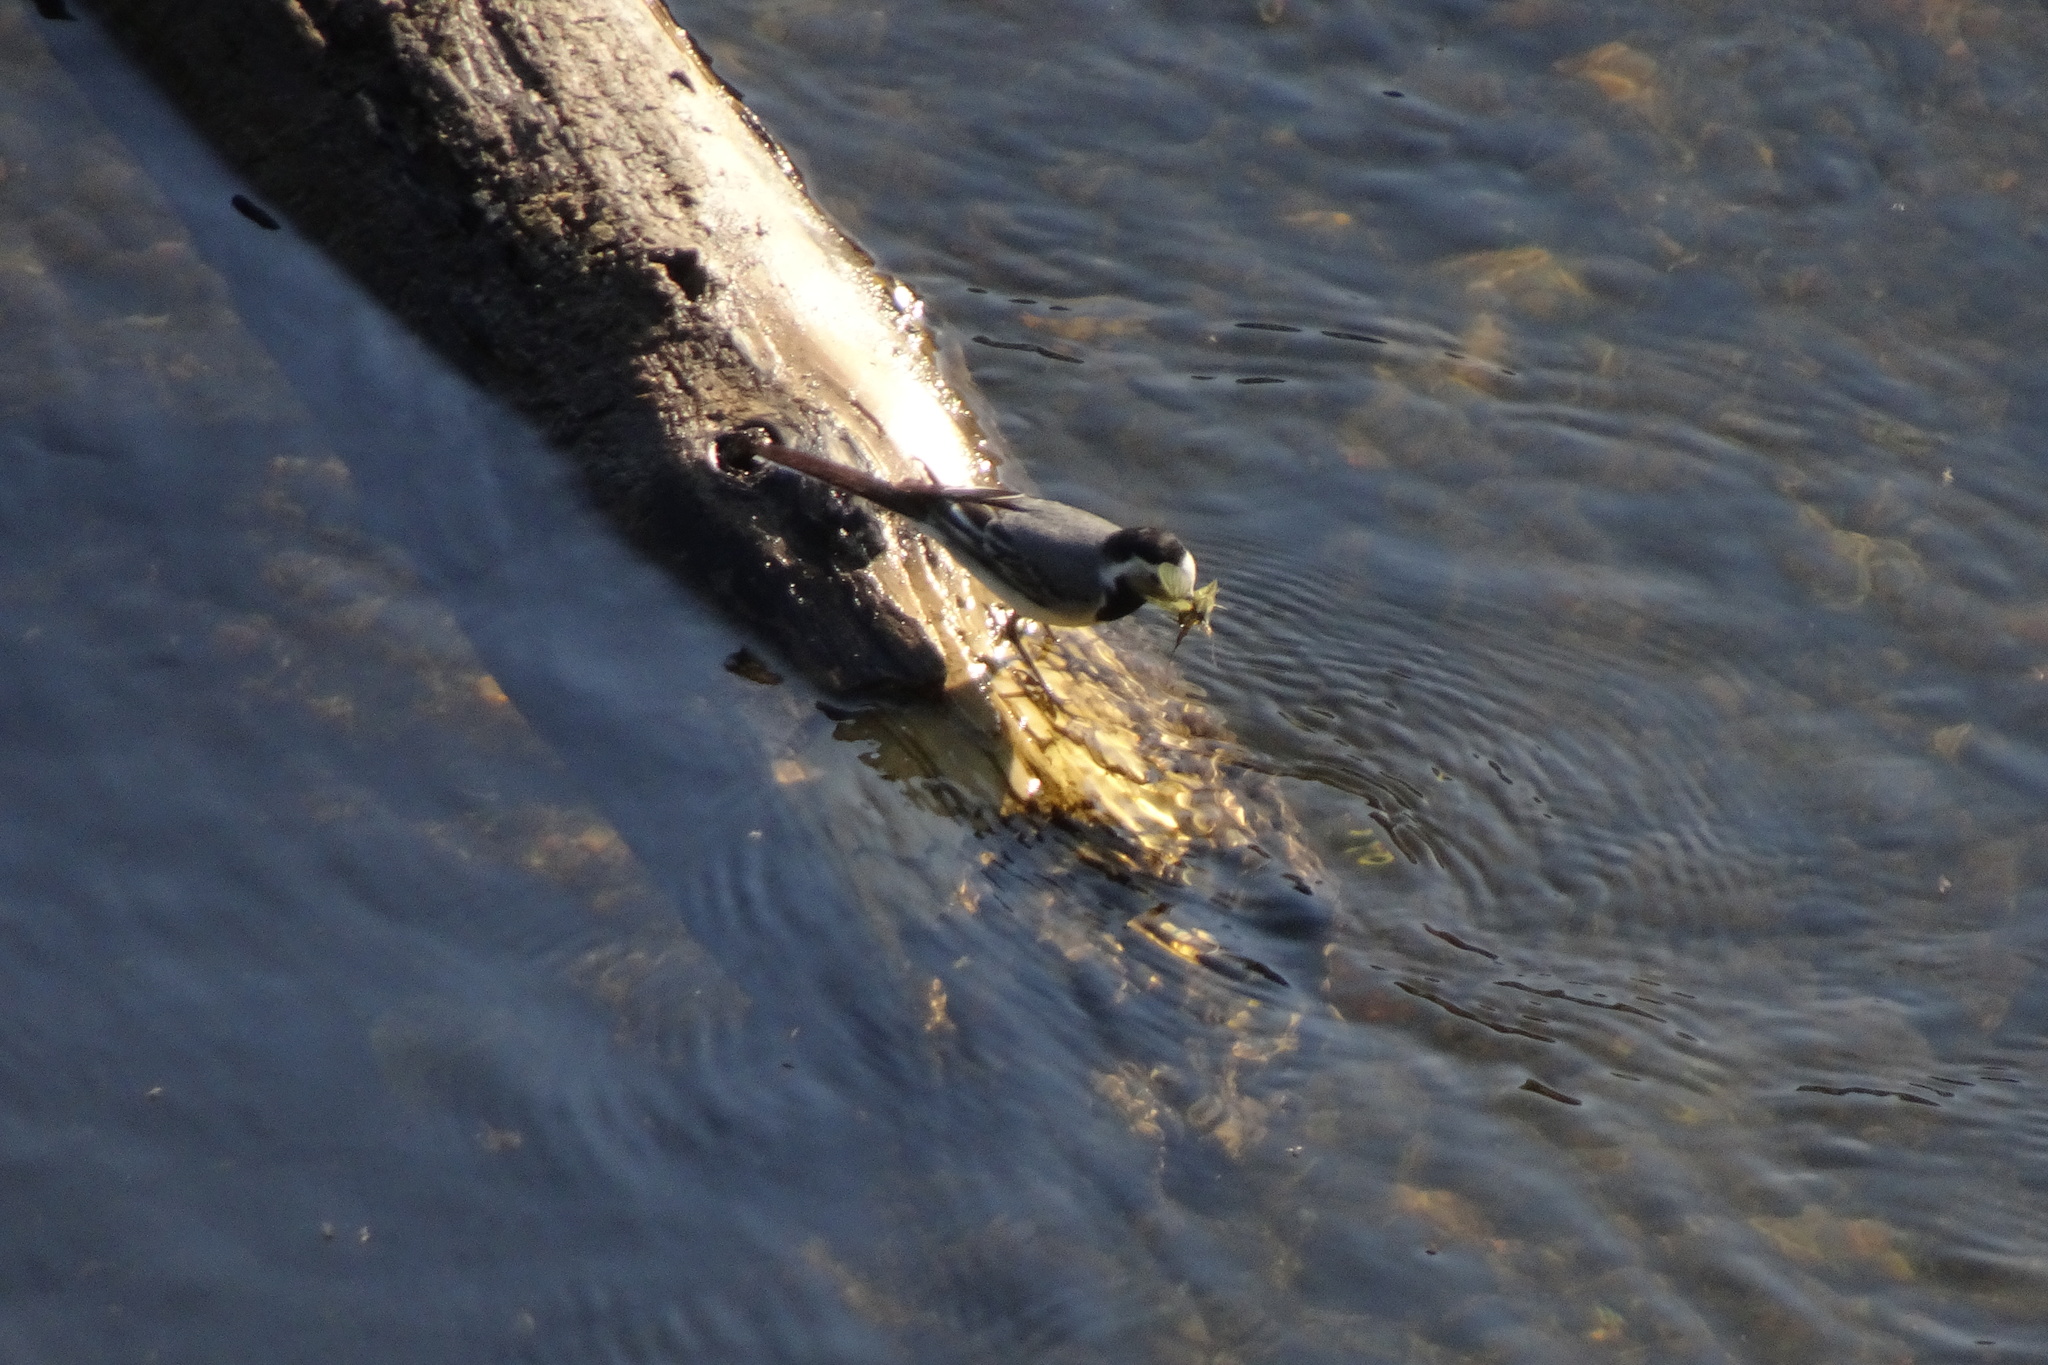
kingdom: Animalia
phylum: Chordata
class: Aves
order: Passeriformes
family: Motacillidae
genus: Motacilla
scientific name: Motacilla alba
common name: White wagtail
